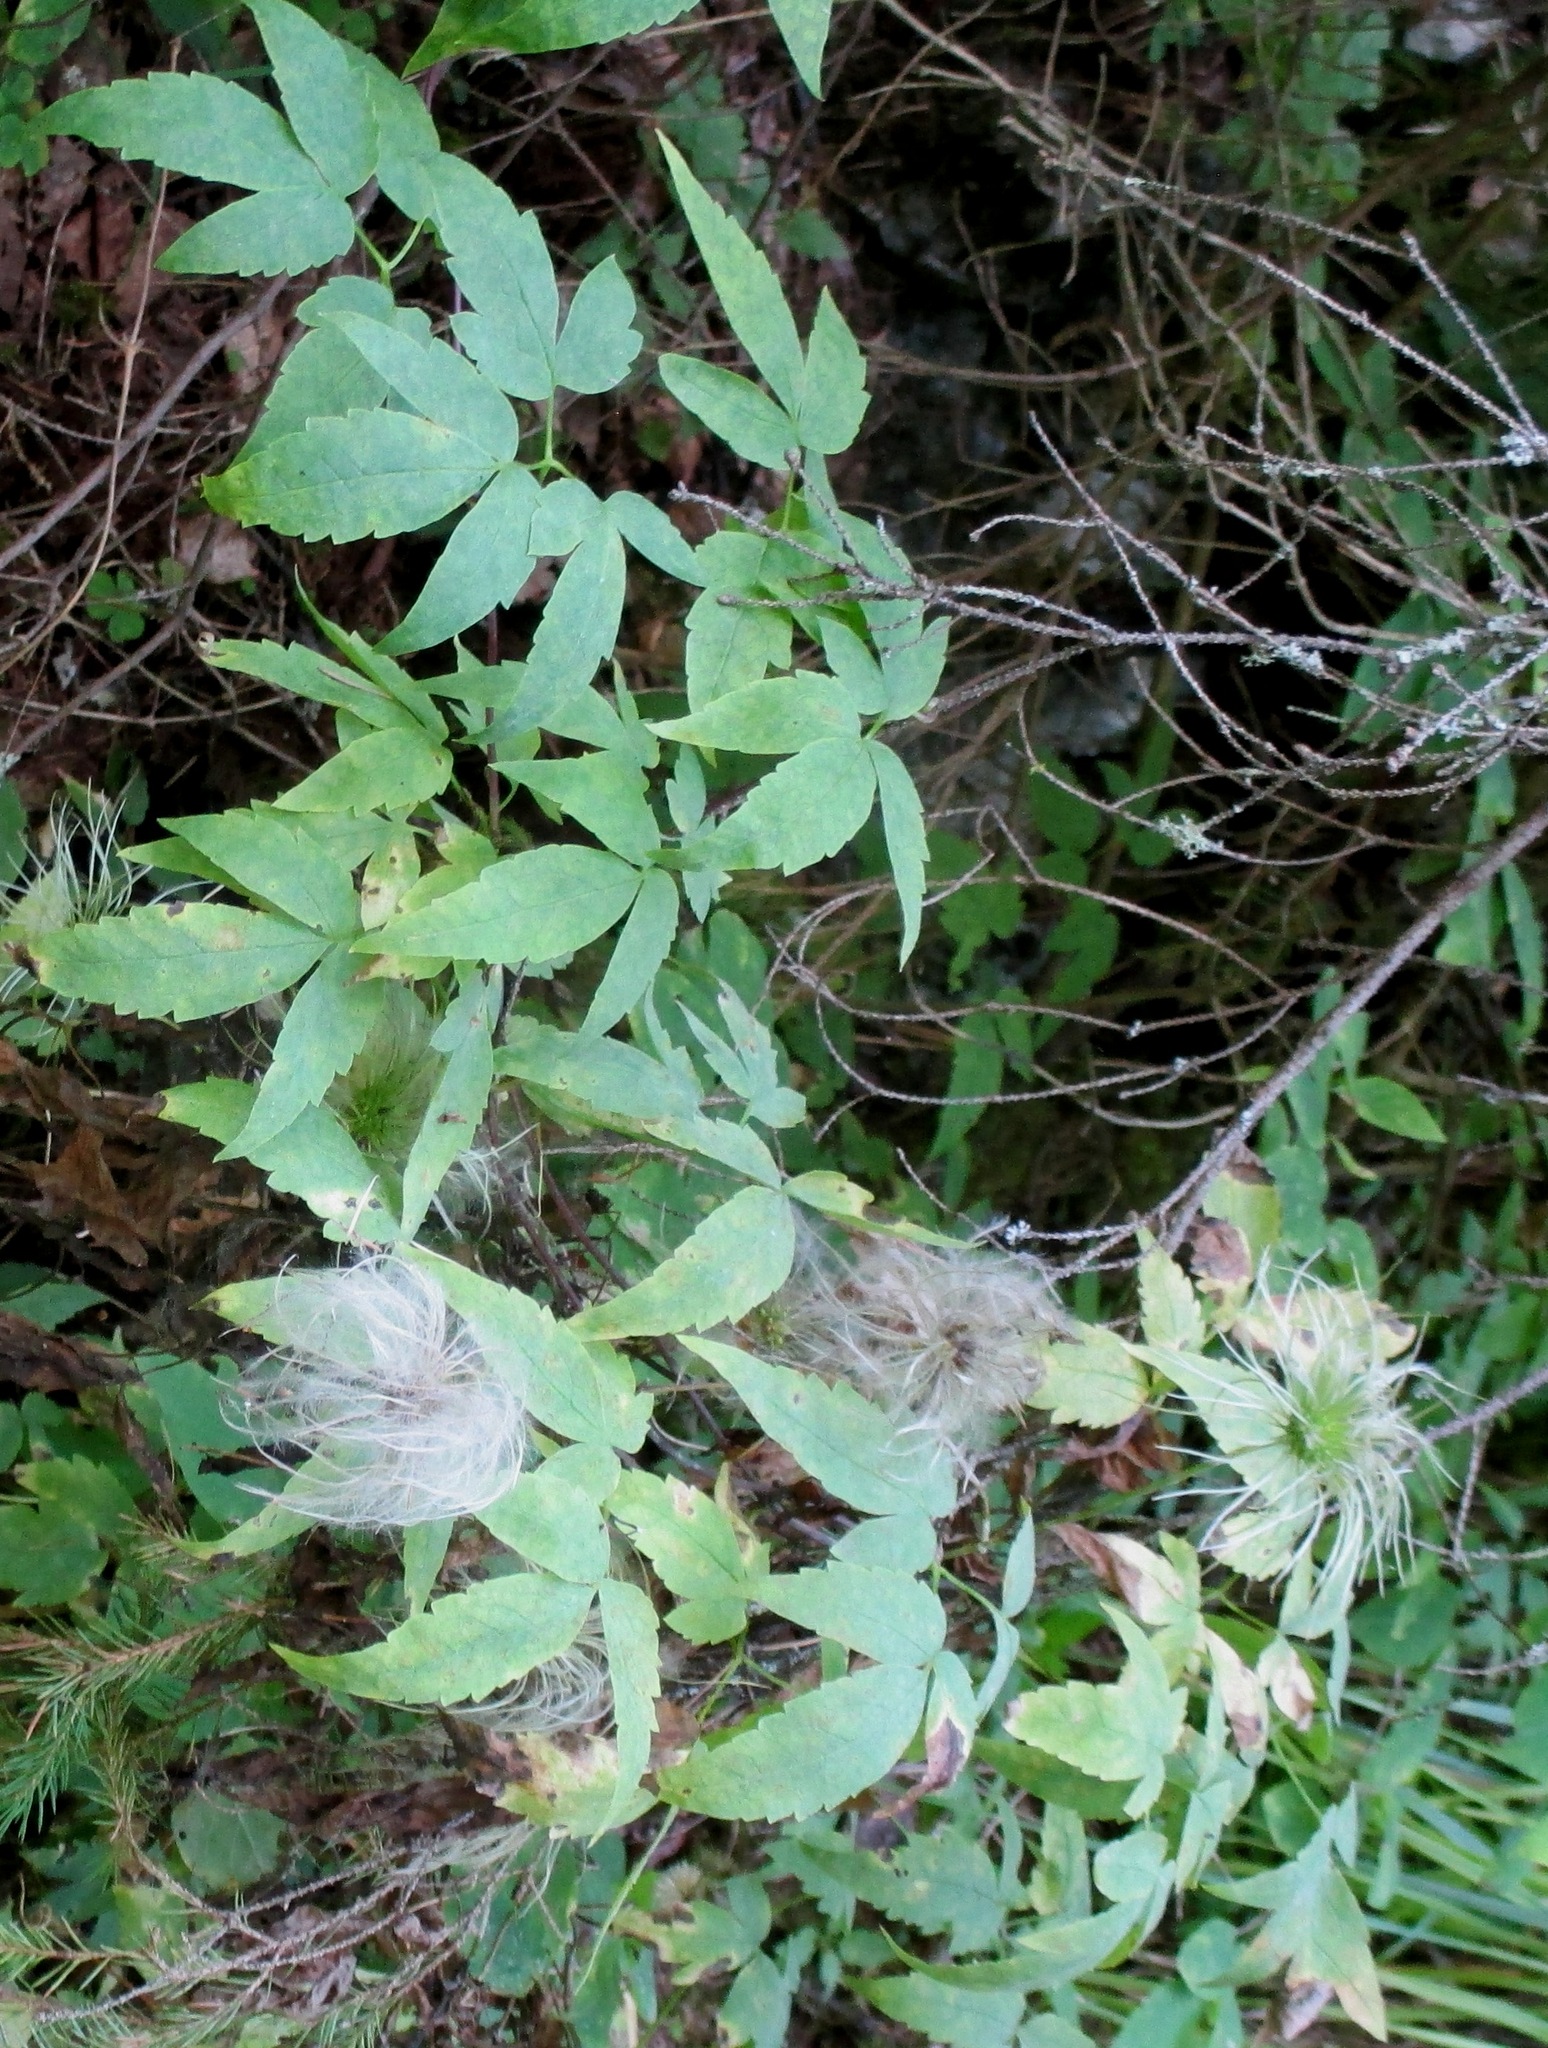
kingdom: Plantae
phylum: Tracheophyta
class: Magnoliopsida
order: Ranunculales
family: Ranunculaceae
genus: Clematis
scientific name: Clematis sibirica
